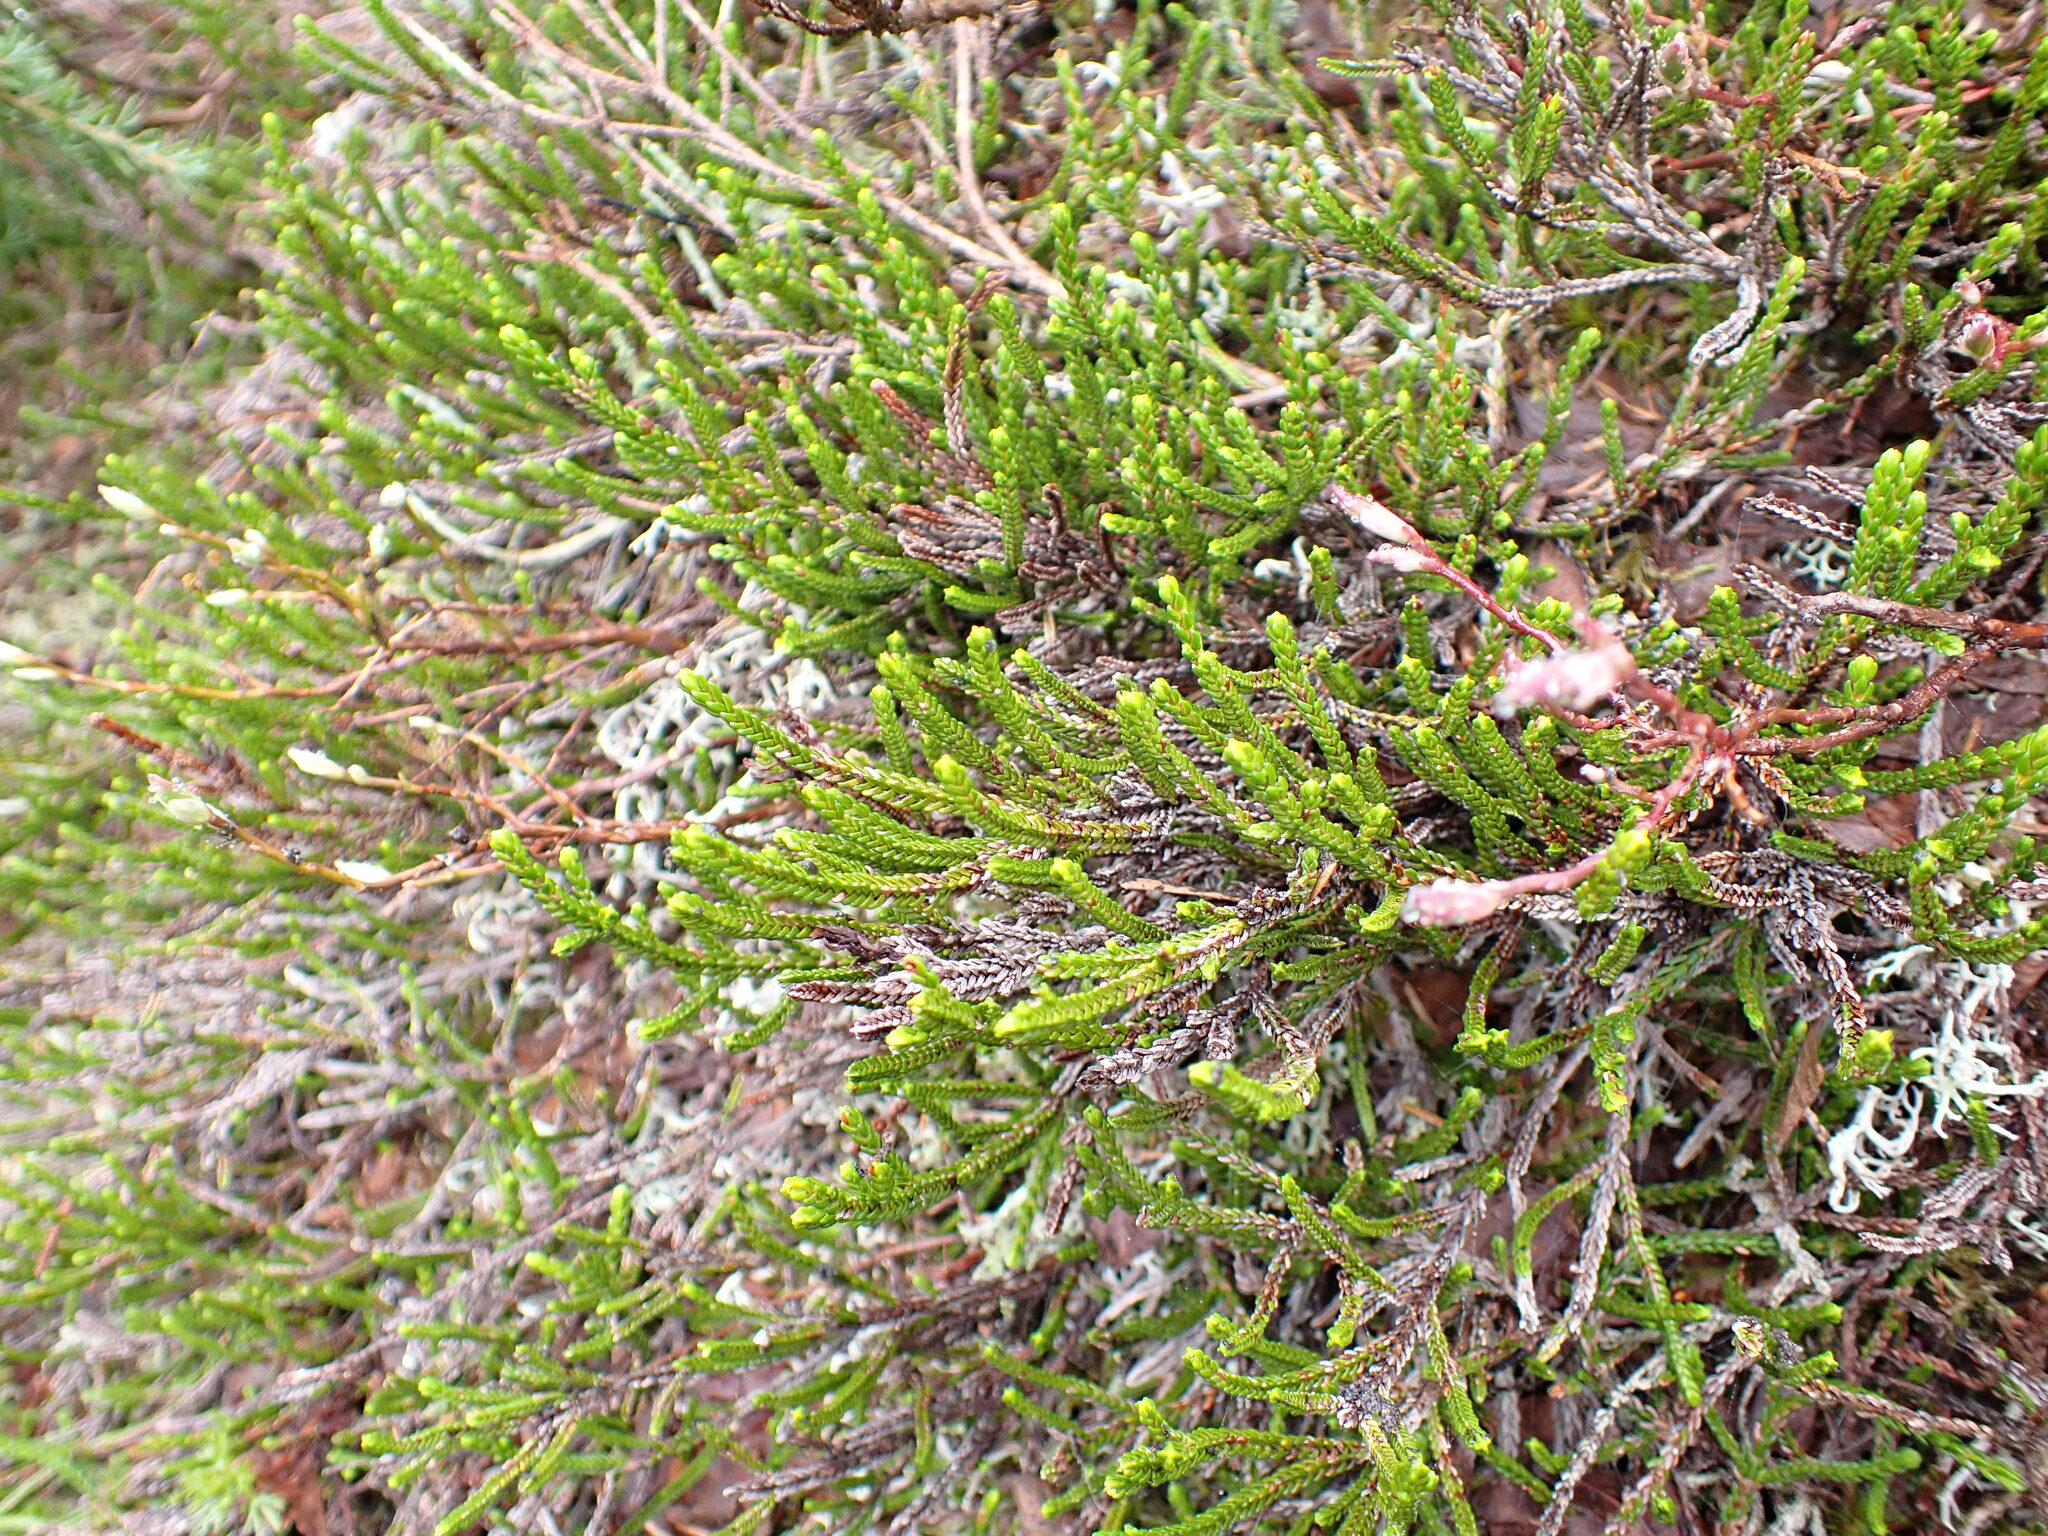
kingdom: Plantae
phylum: Tracheophyta
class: Magnoliopsida
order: Ericales
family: Ericaceae
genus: Cassiope
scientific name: Cassiope mertensiana
